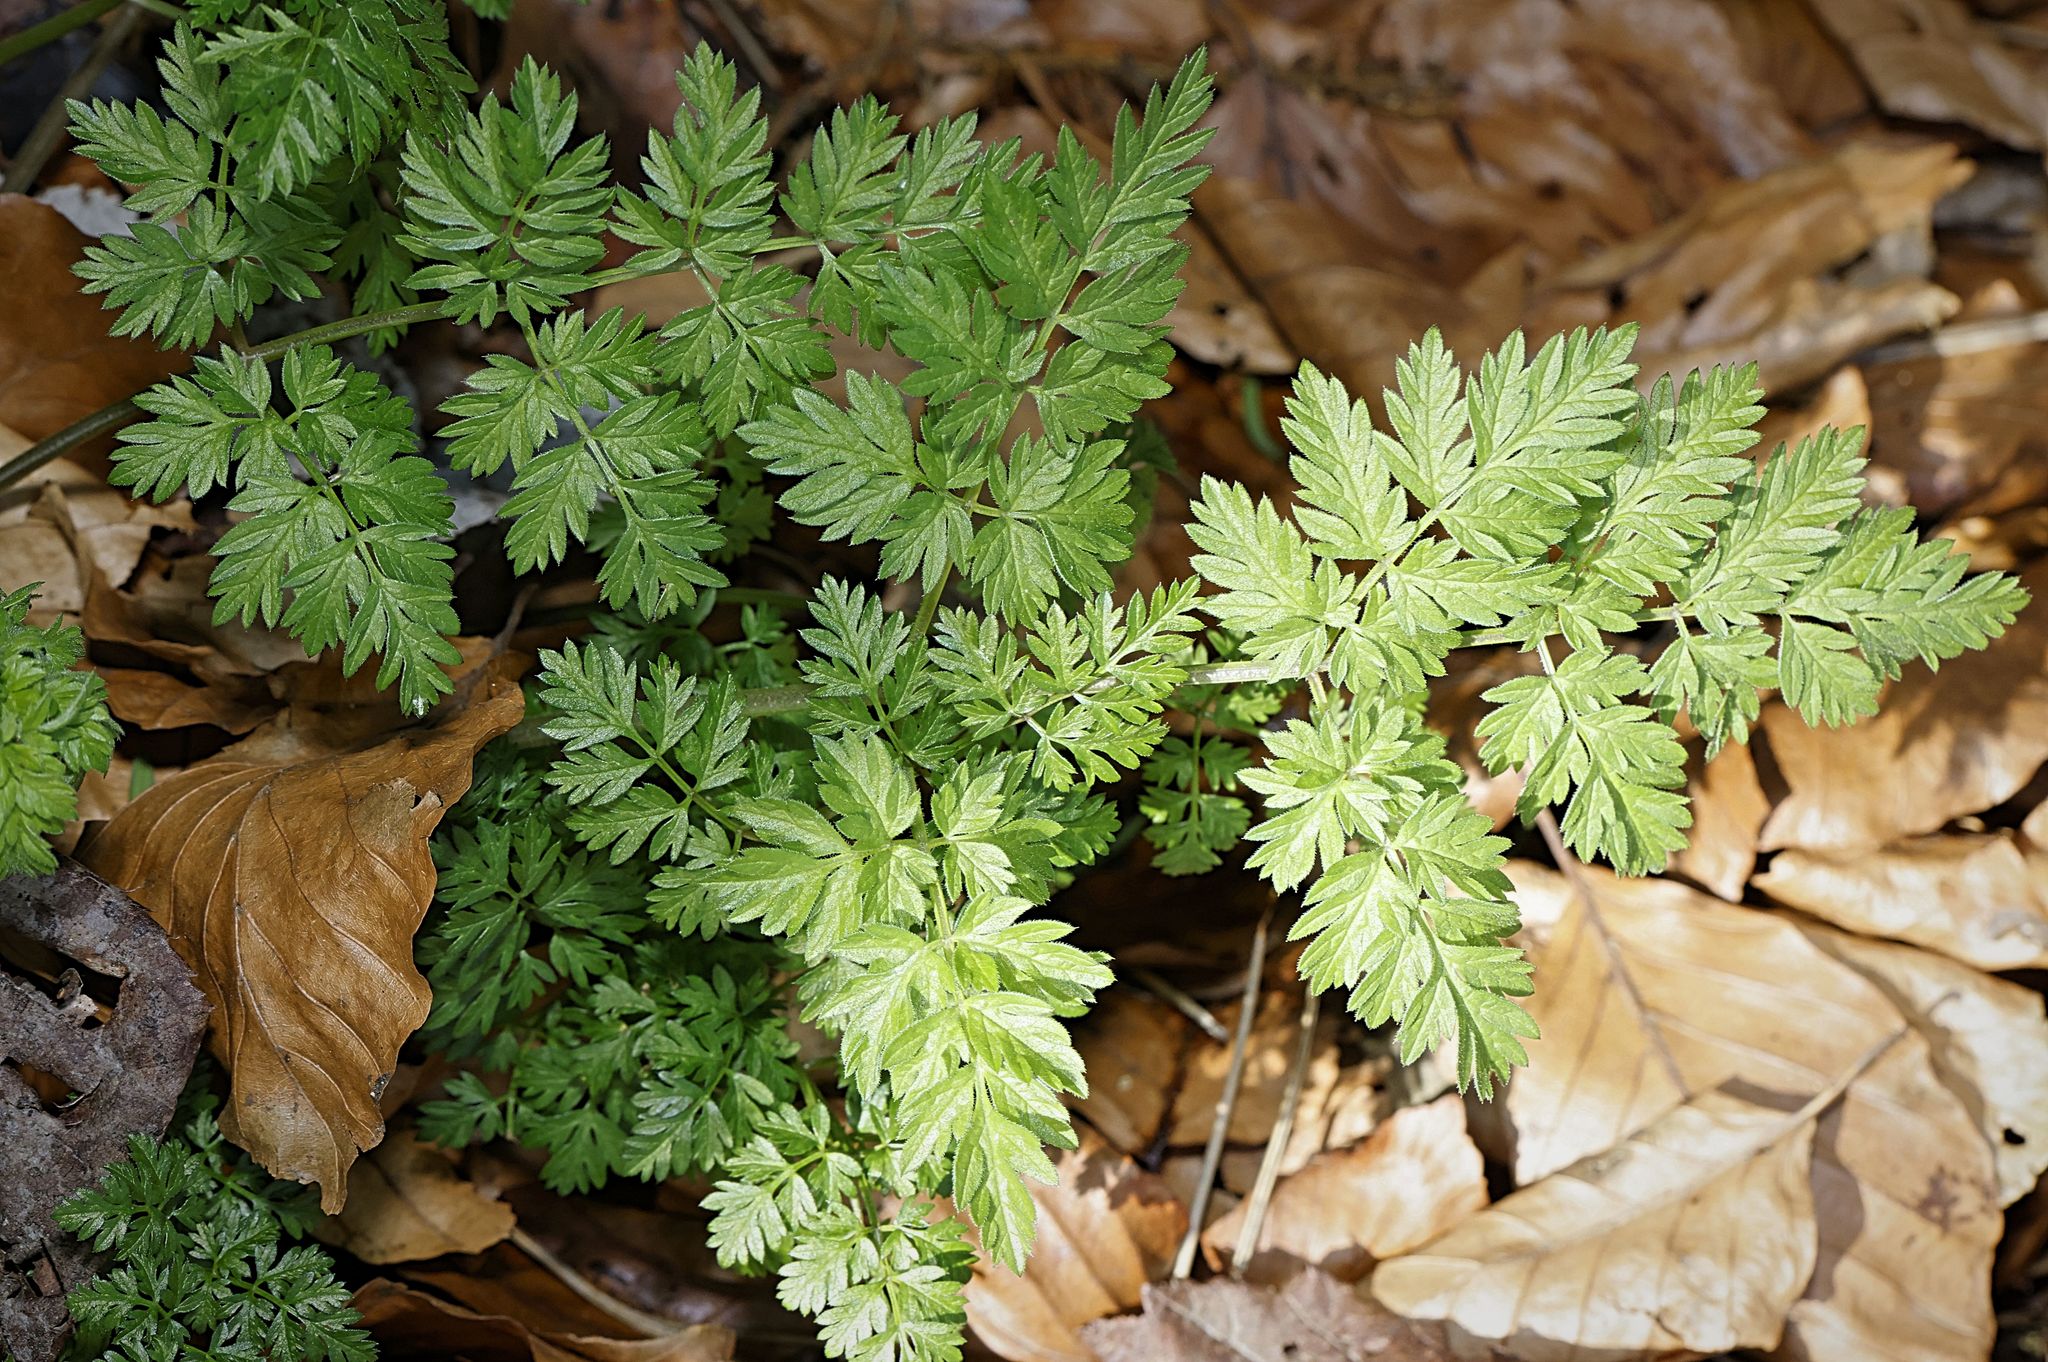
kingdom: Plantae
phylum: Tracheophyta
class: Magnoliopsida
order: Apiales
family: Apiaceae
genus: Anthriscus
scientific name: Anthriscus sylvestris
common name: Cow parsley
